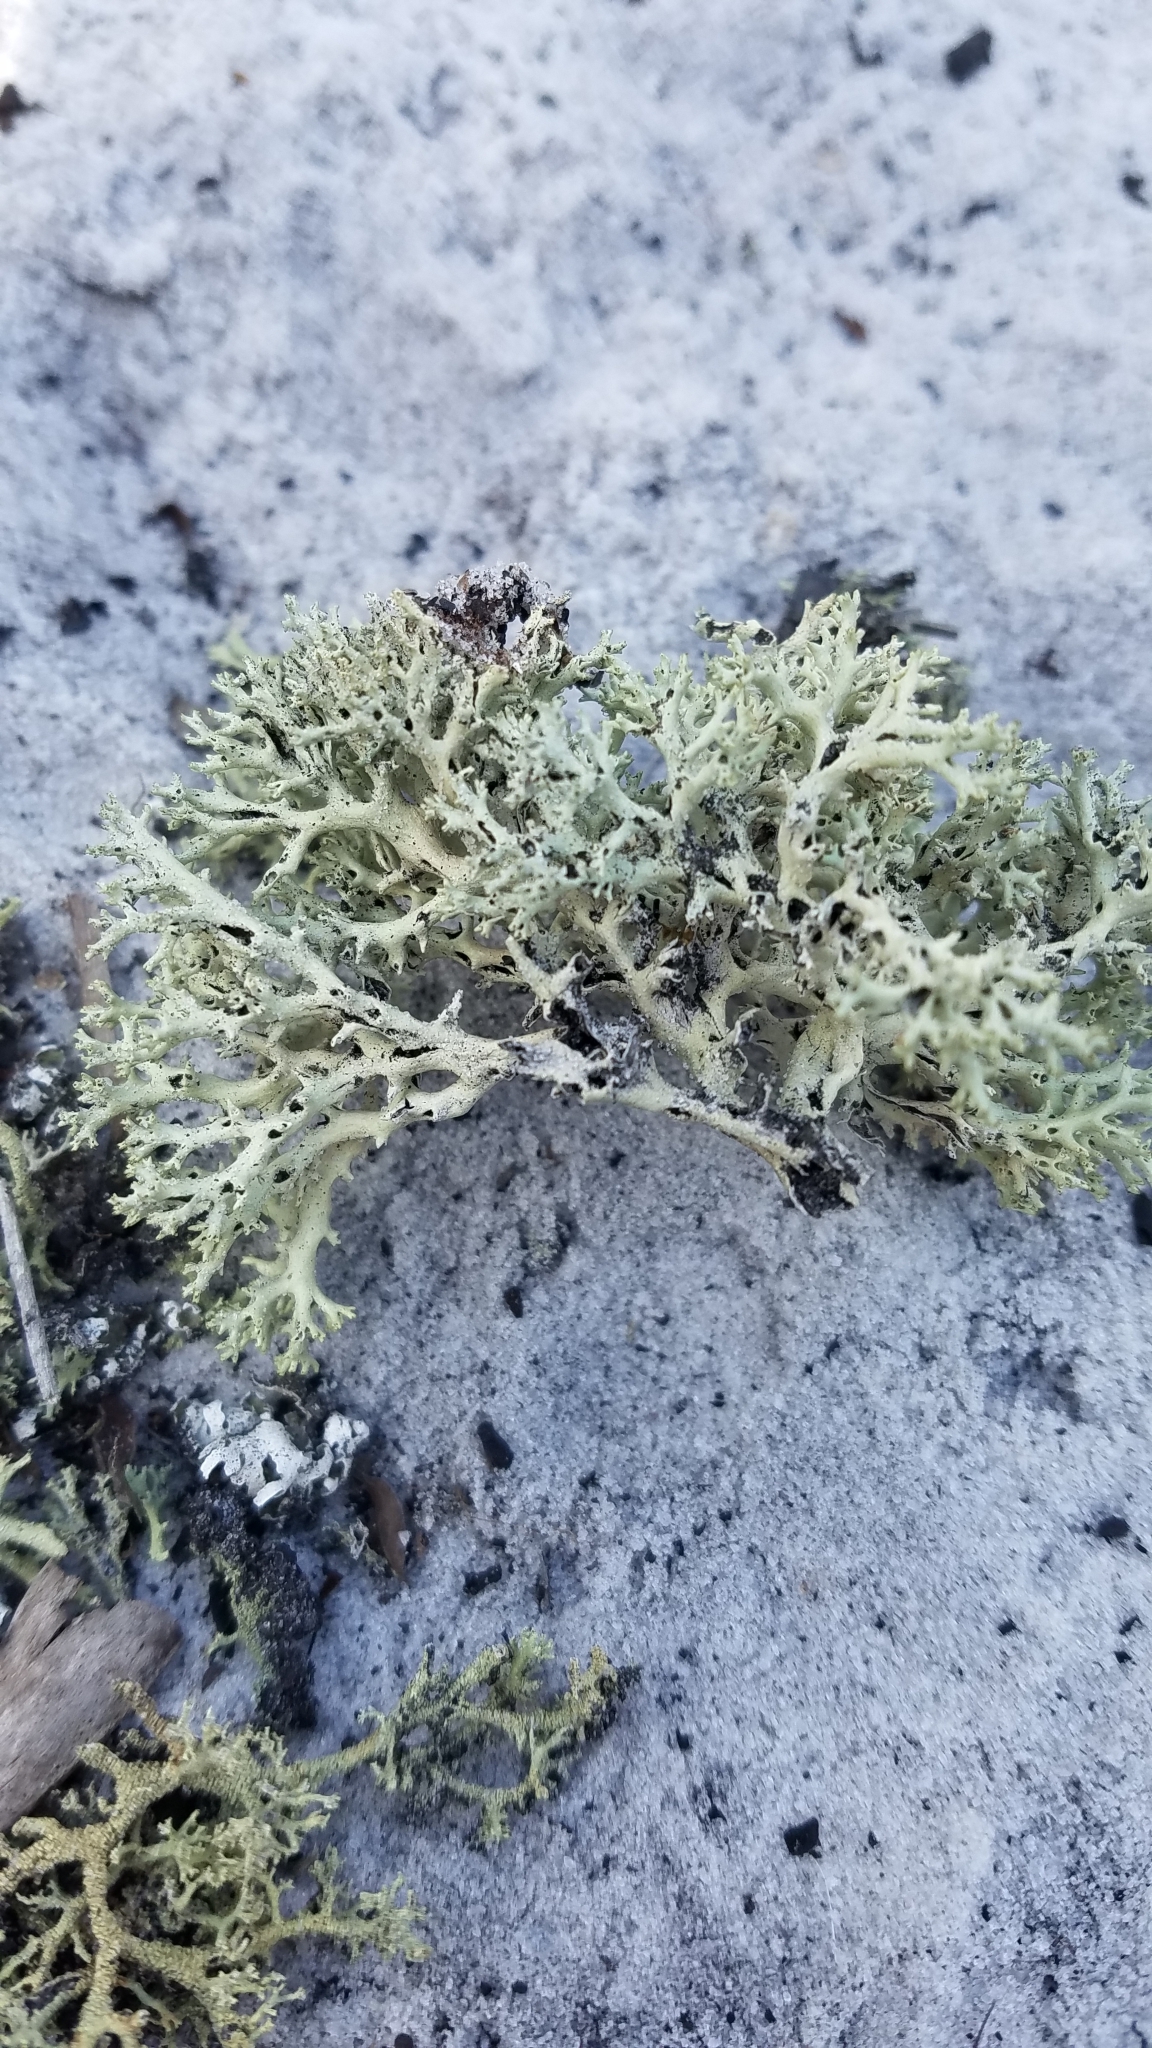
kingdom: Fungi
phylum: Ascomycota
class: Lecanoromycetes
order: Lecanorales
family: Cladoniaceae
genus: Cladonia
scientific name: Cladonia perforata
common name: Florida perforate reindeer lichen
